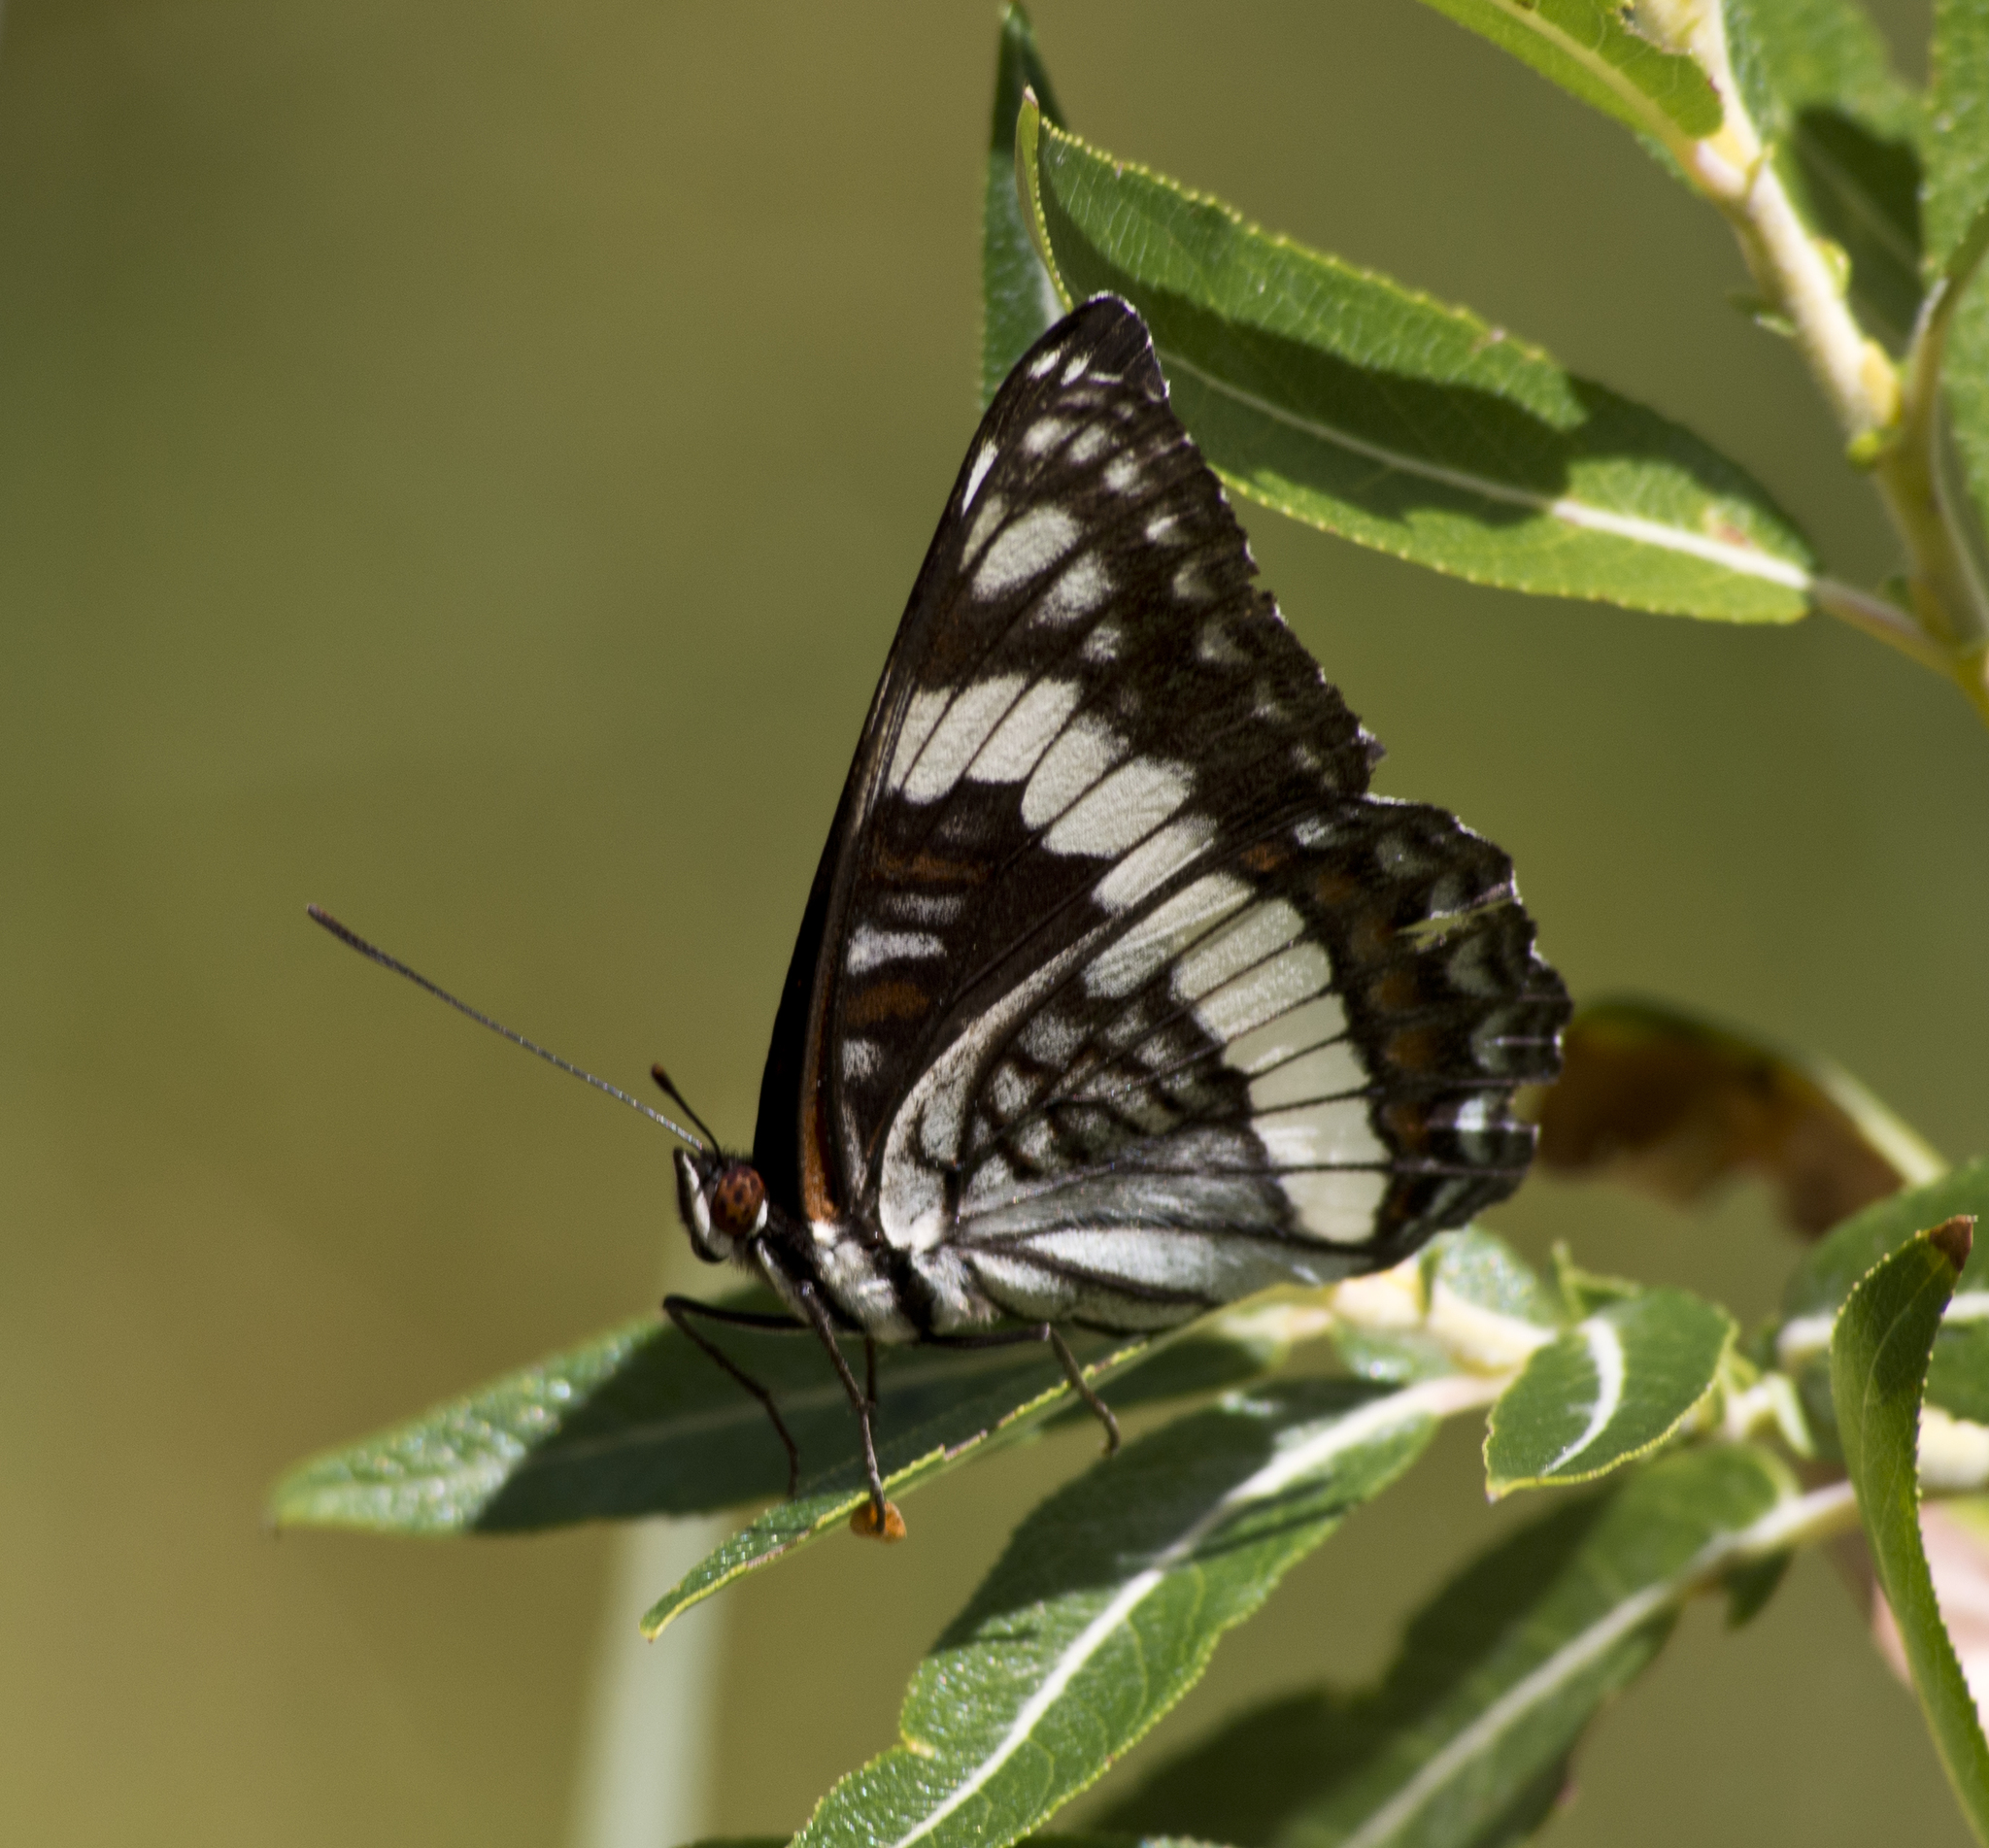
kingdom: Animalia
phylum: Arthropoda
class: Insecta
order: Lepidoptera
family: Nymphalidae
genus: Limenitis
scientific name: Limenitis weidemeyerii
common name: Weidemeyer's admiral
